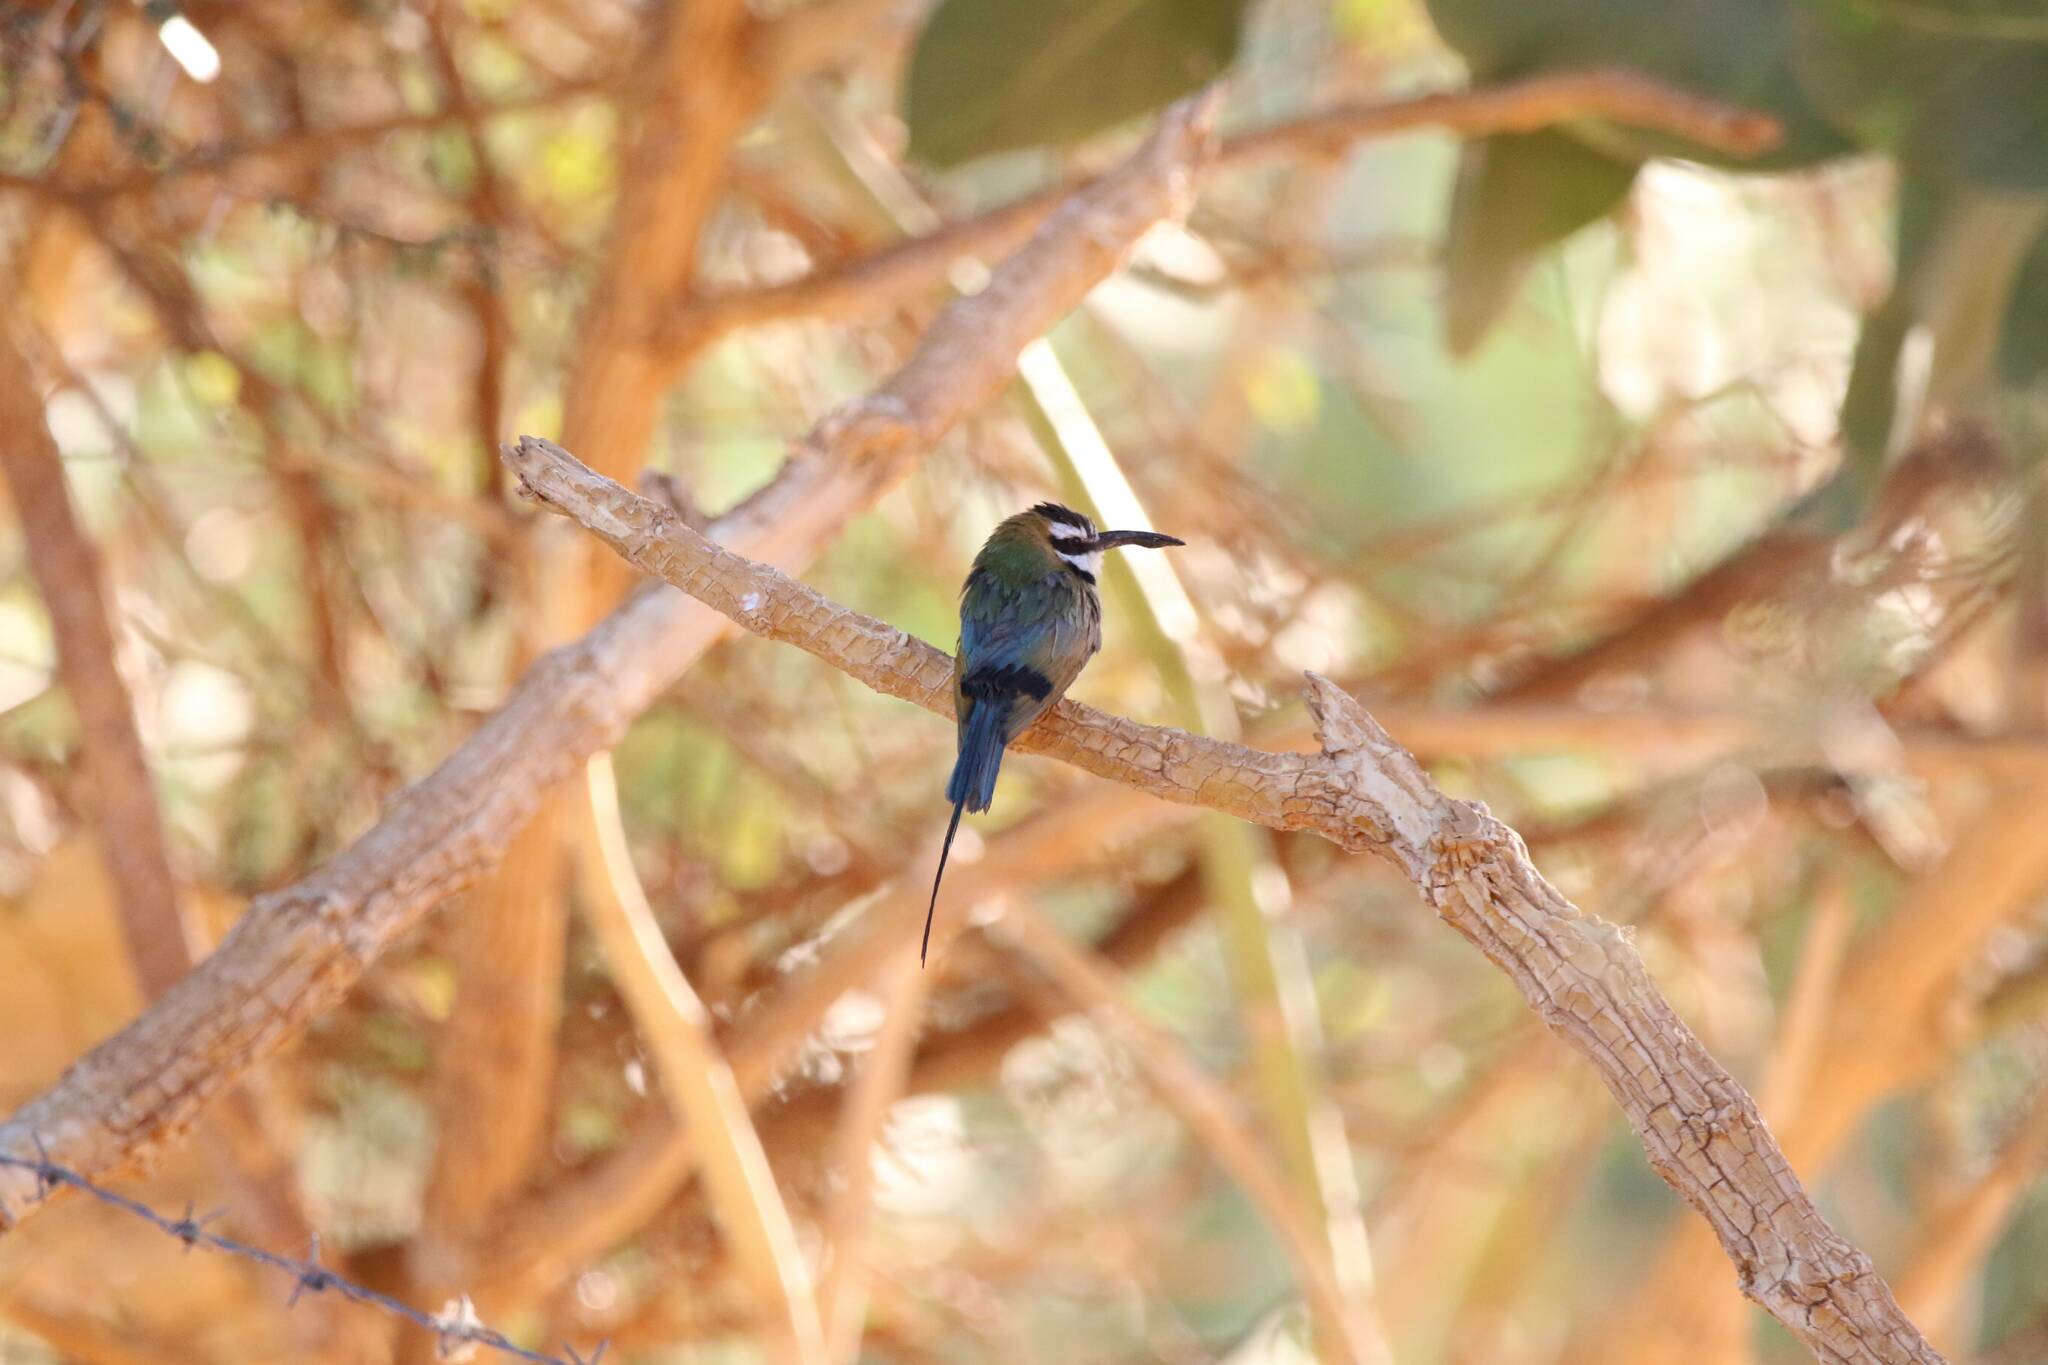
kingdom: Animalia
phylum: Chordata
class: Aves
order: Coraciiformes
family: Meropidae
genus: Merops
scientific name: Merops albicollis
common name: White-throated bee-eater
